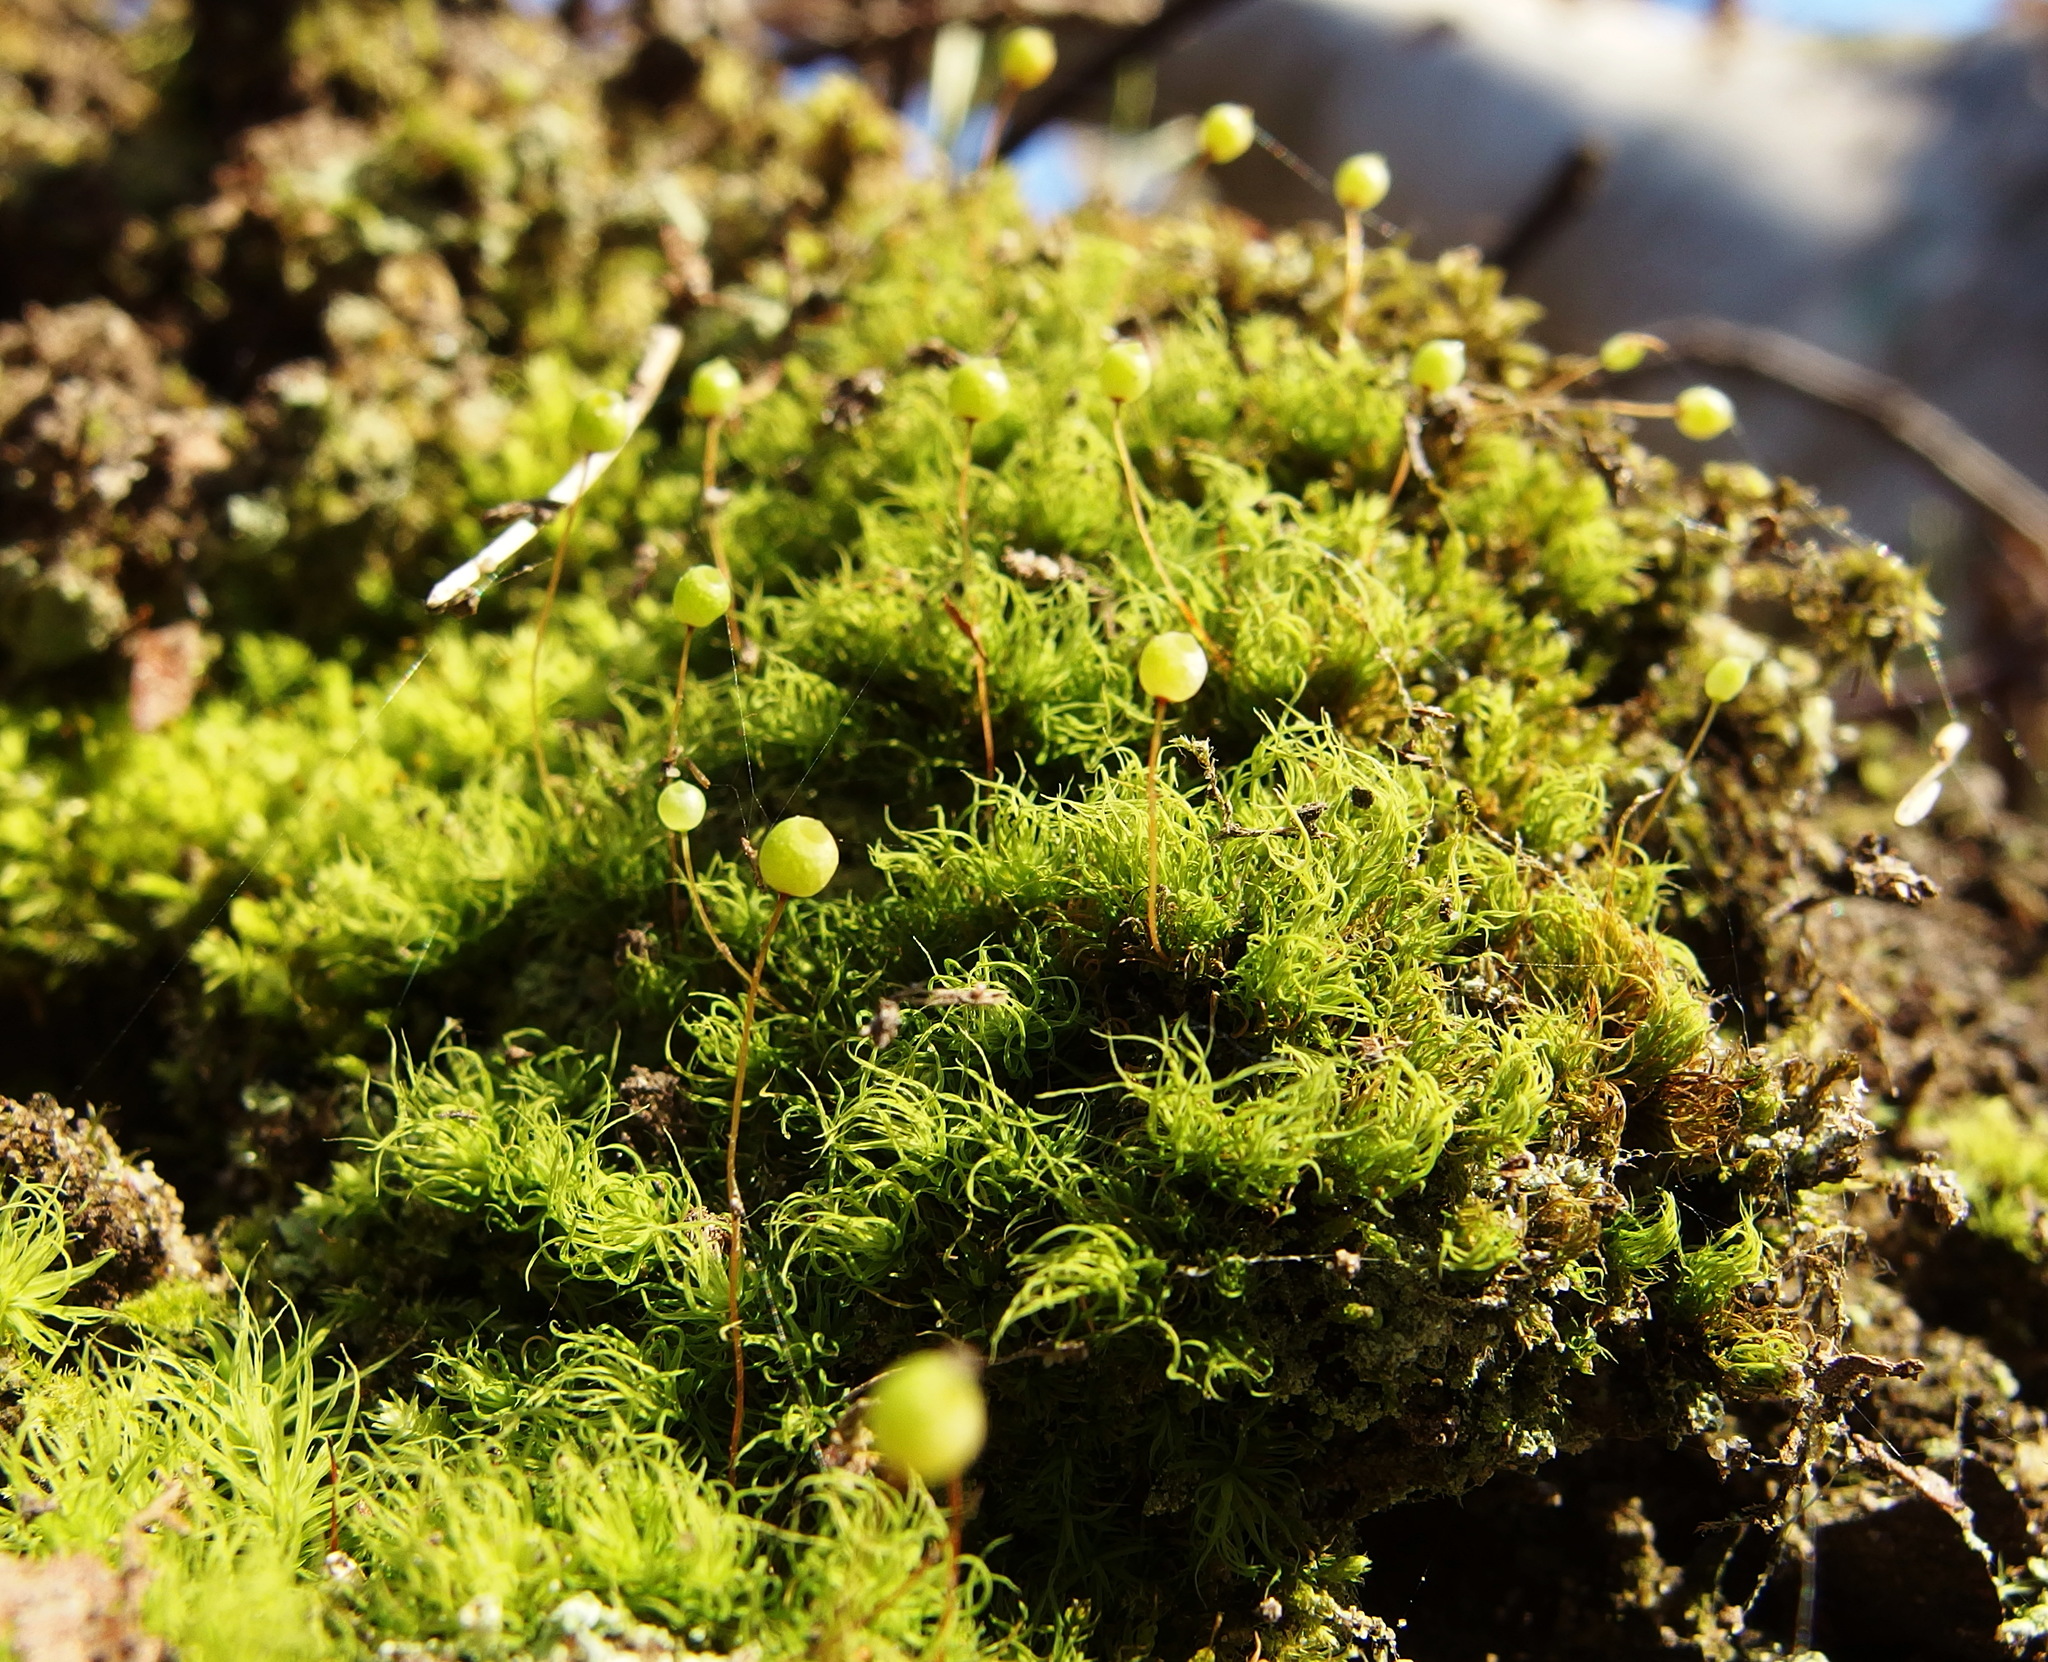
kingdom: Plantae
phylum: Bryophyta
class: Bryopsida
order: Bartramiales
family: Bartramiaceae
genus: Bartramia
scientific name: Bartramia ithyphylla
